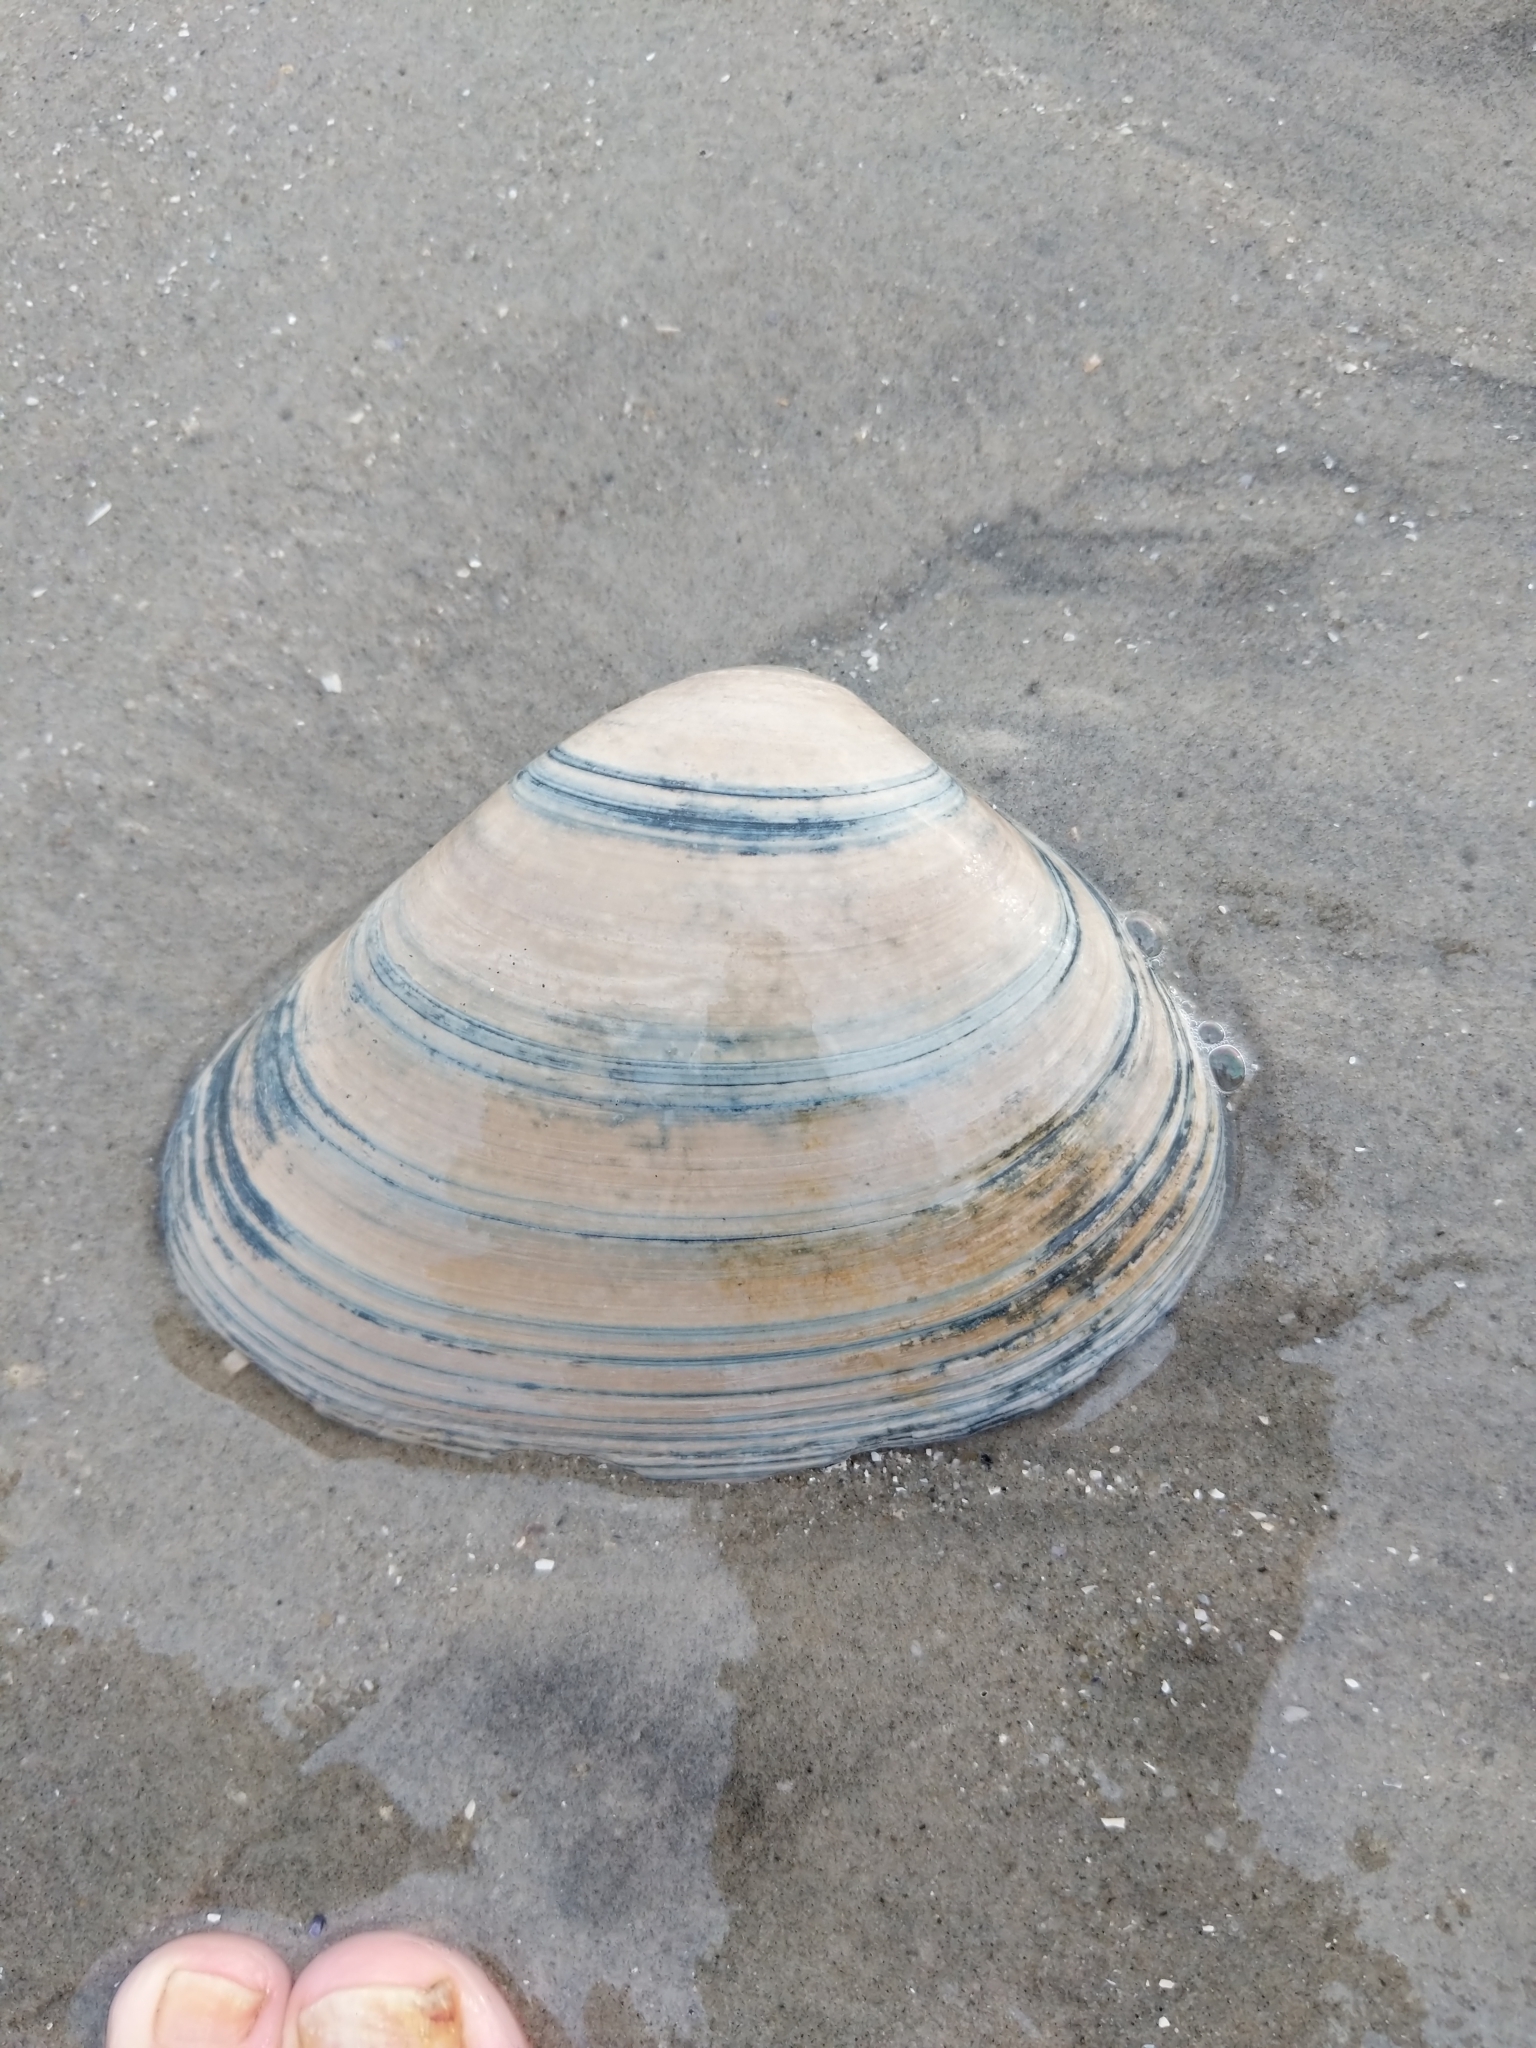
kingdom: Animalia
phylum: Mollusca
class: Bivalvia
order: Venerida
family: Mactridae
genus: Spisula
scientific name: Spisula solidissima
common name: Atlantic surf clam
